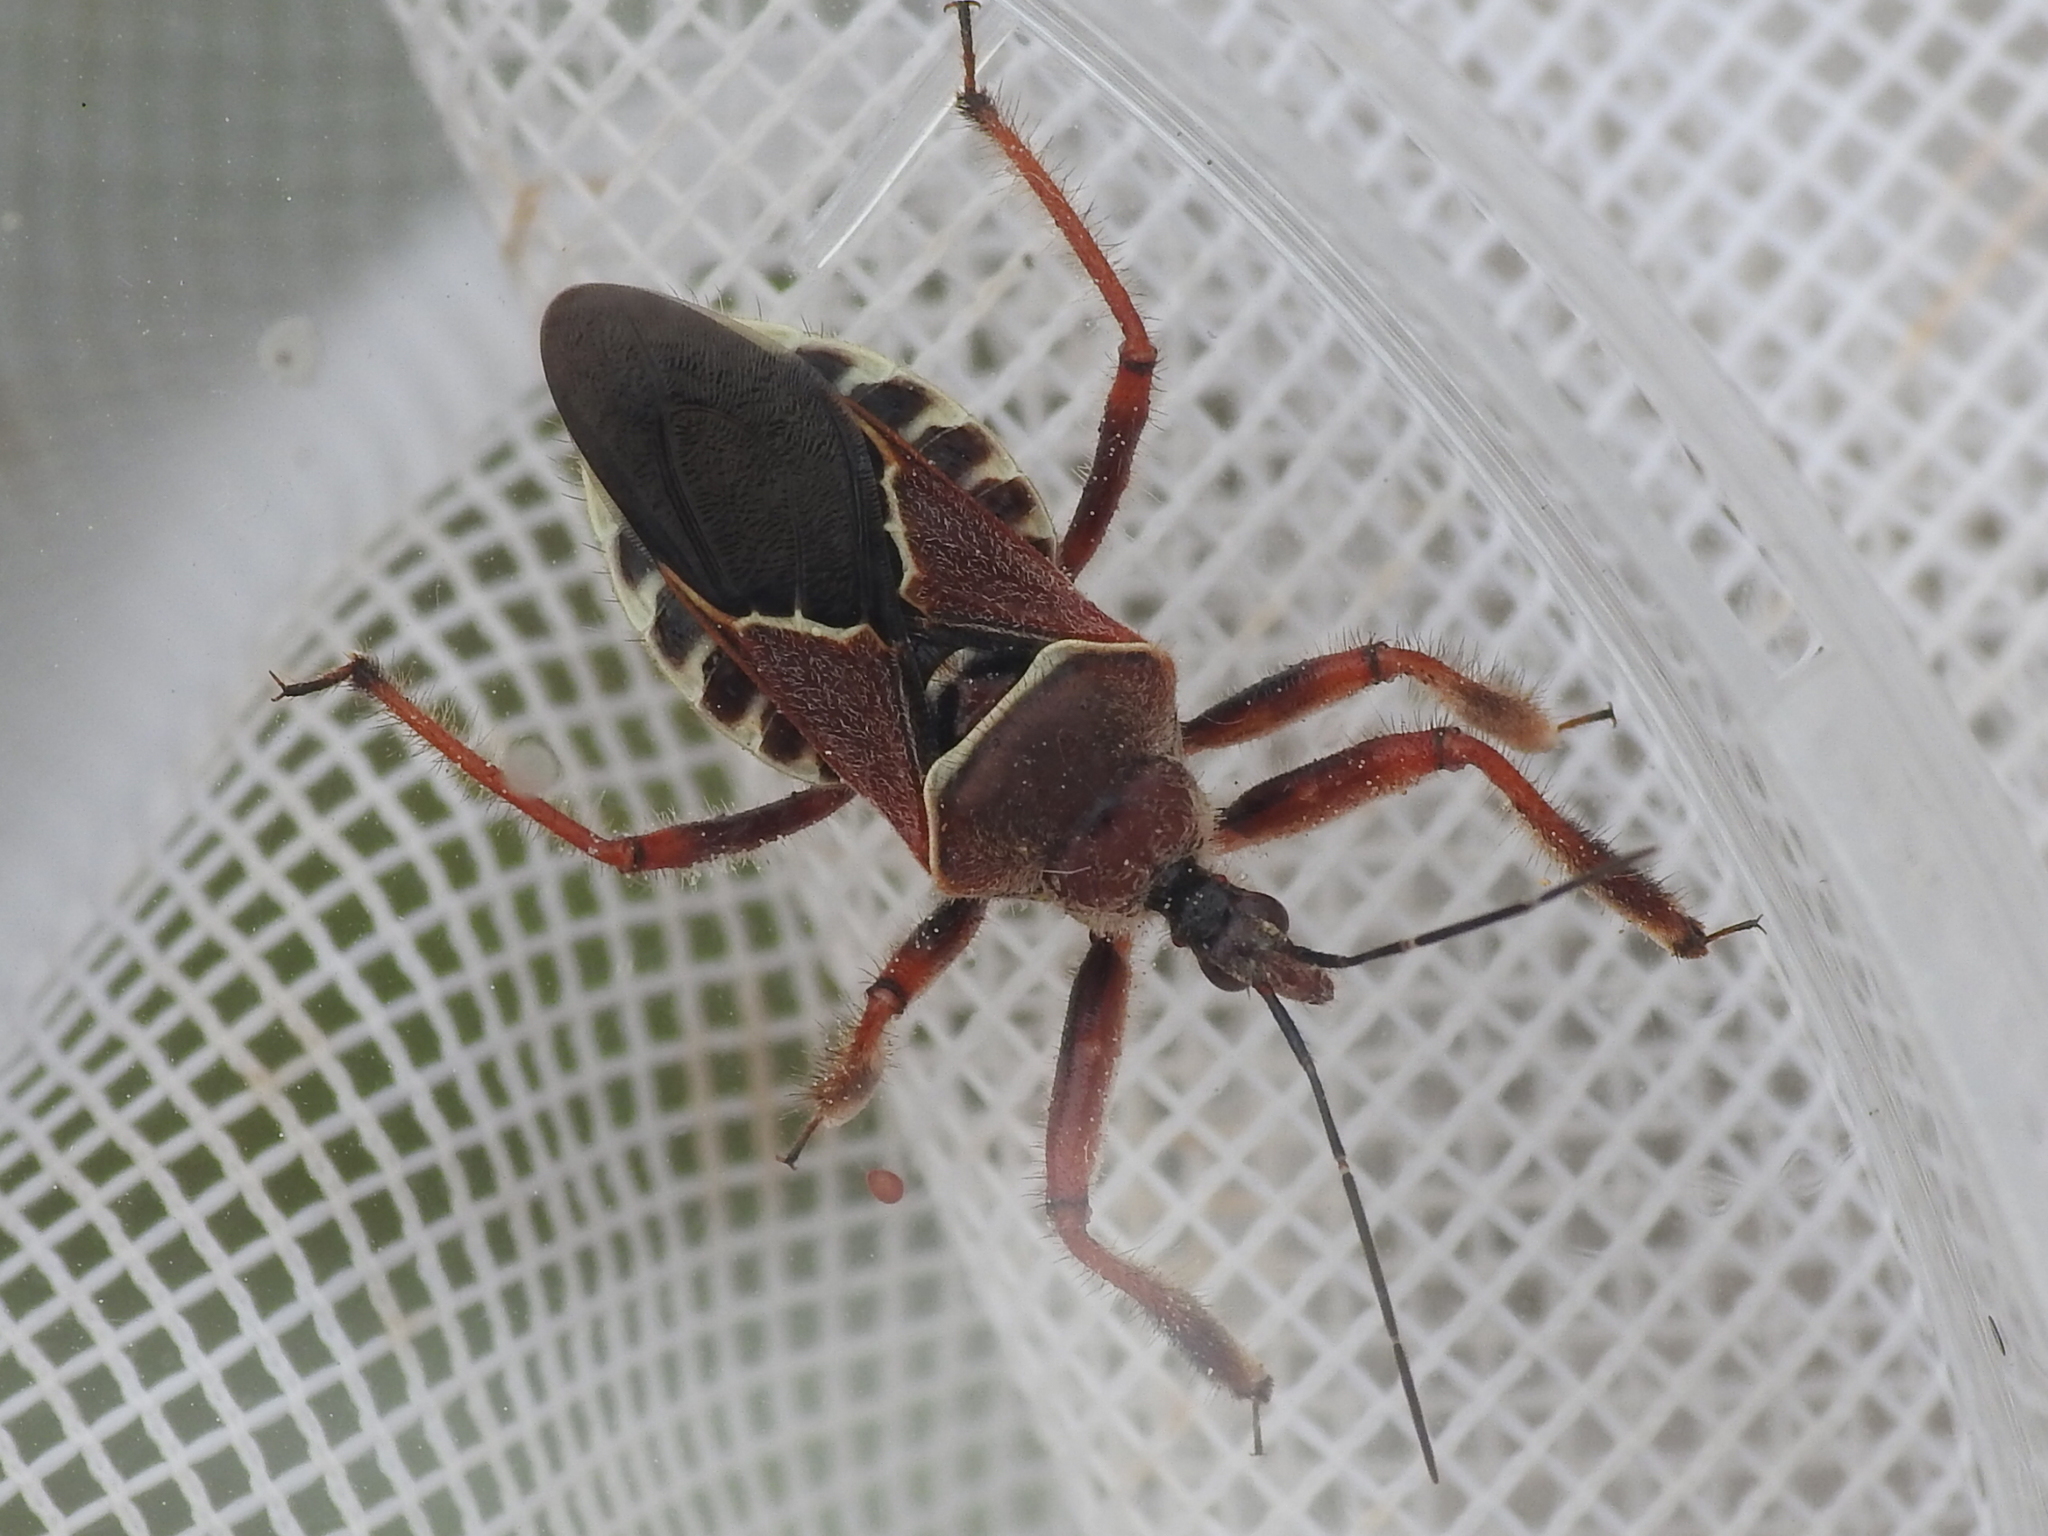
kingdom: Animalia
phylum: Arthropoda
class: Insecta
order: Hemiptera
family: Reduviidae
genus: Apiomerus
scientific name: Apiomerus spissipes
